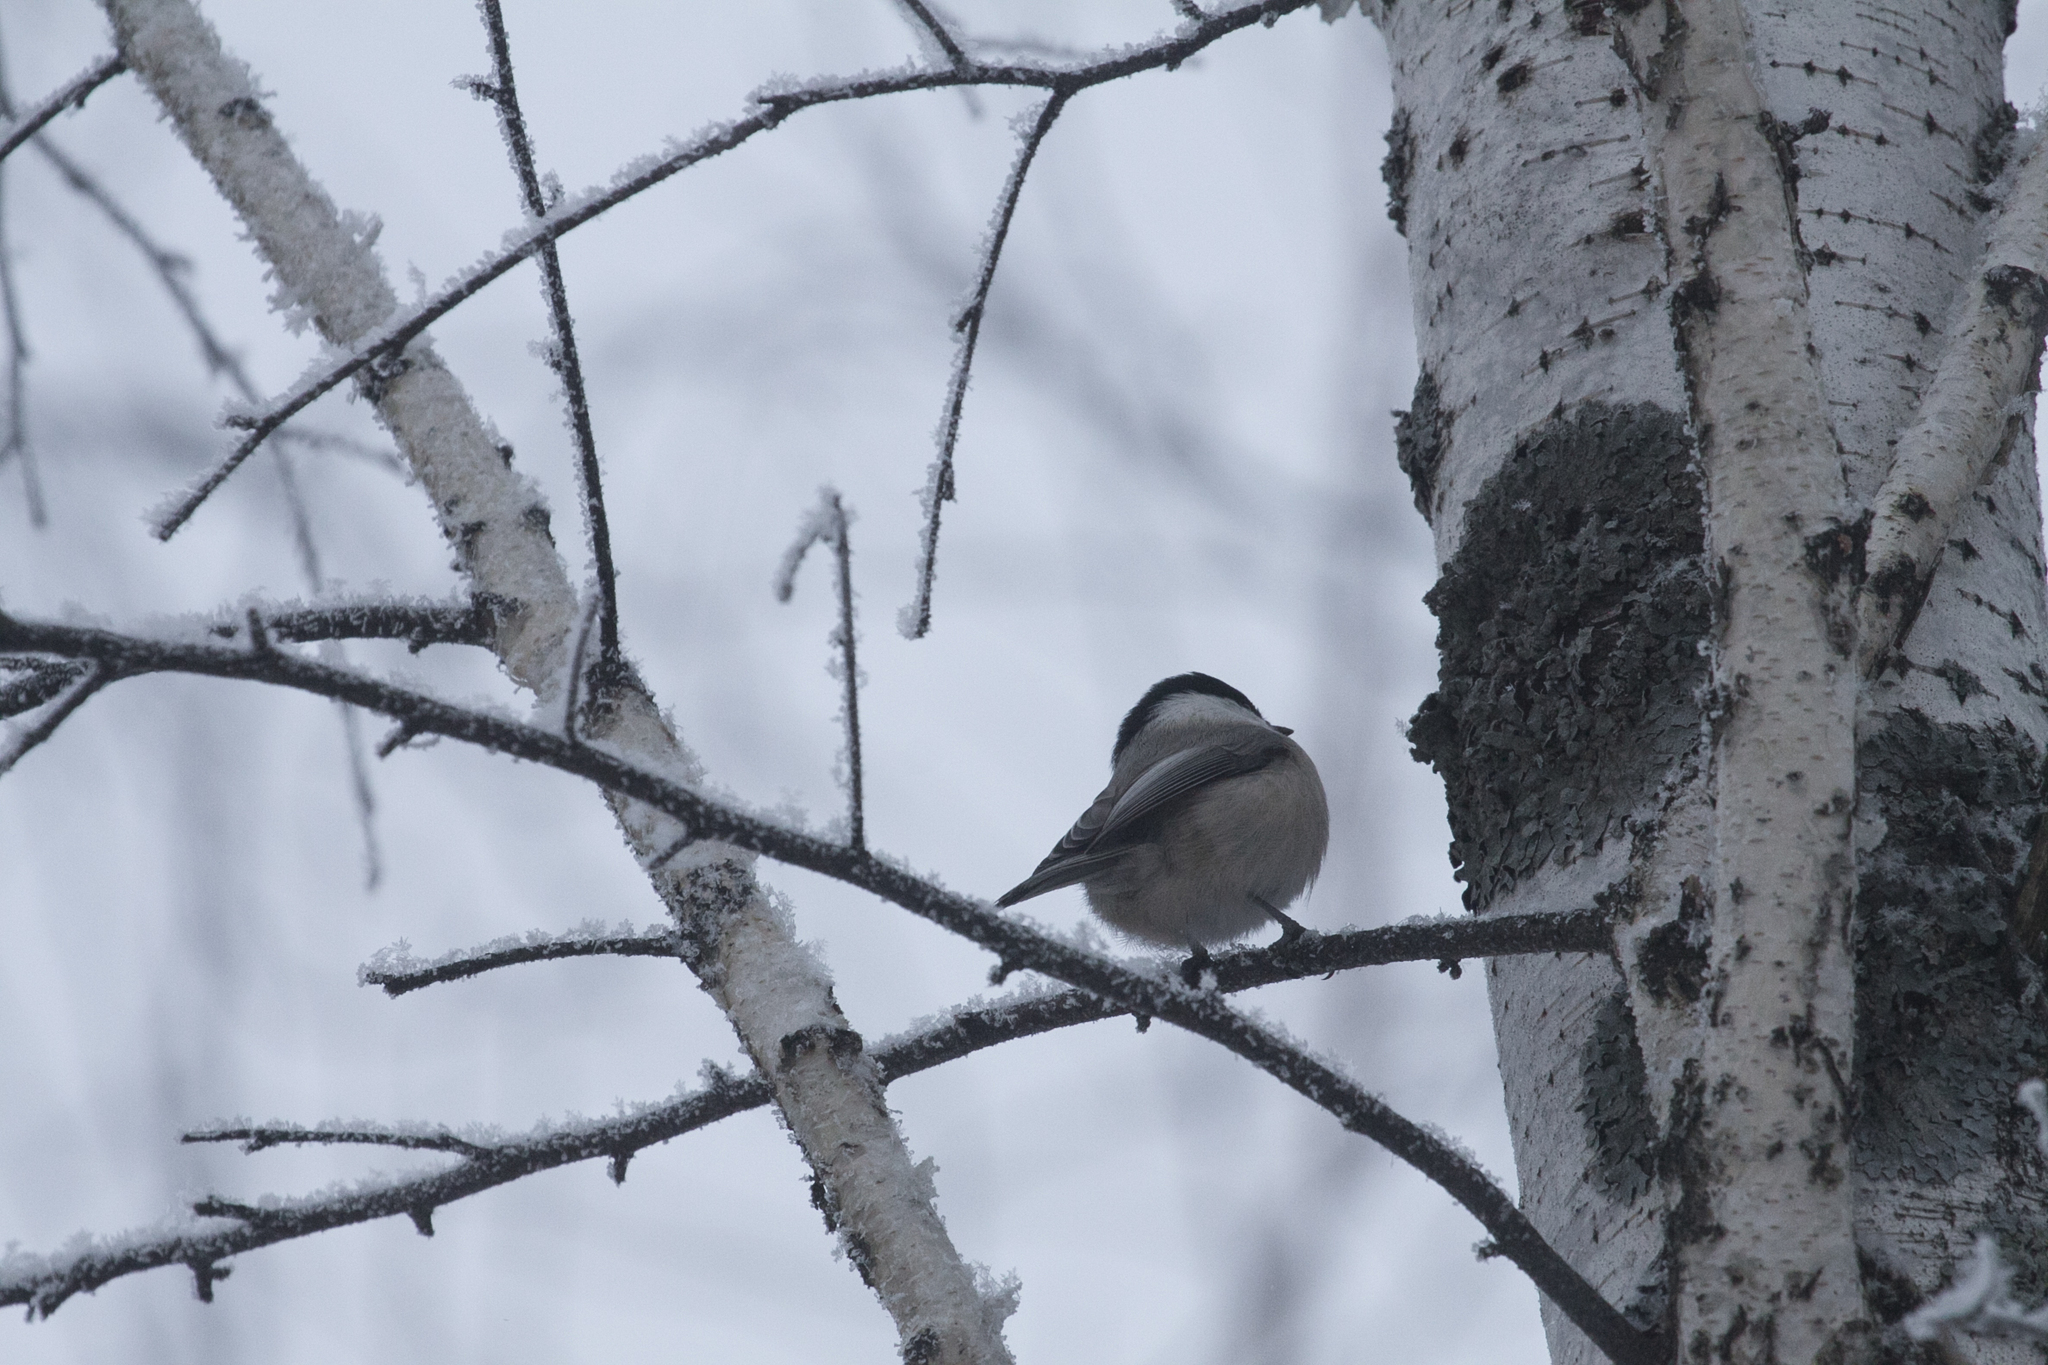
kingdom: Animalia
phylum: Chordata
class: Aves
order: Passeriformes
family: Paridae
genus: Poecile
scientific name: Poecile montanus
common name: Willow tit
